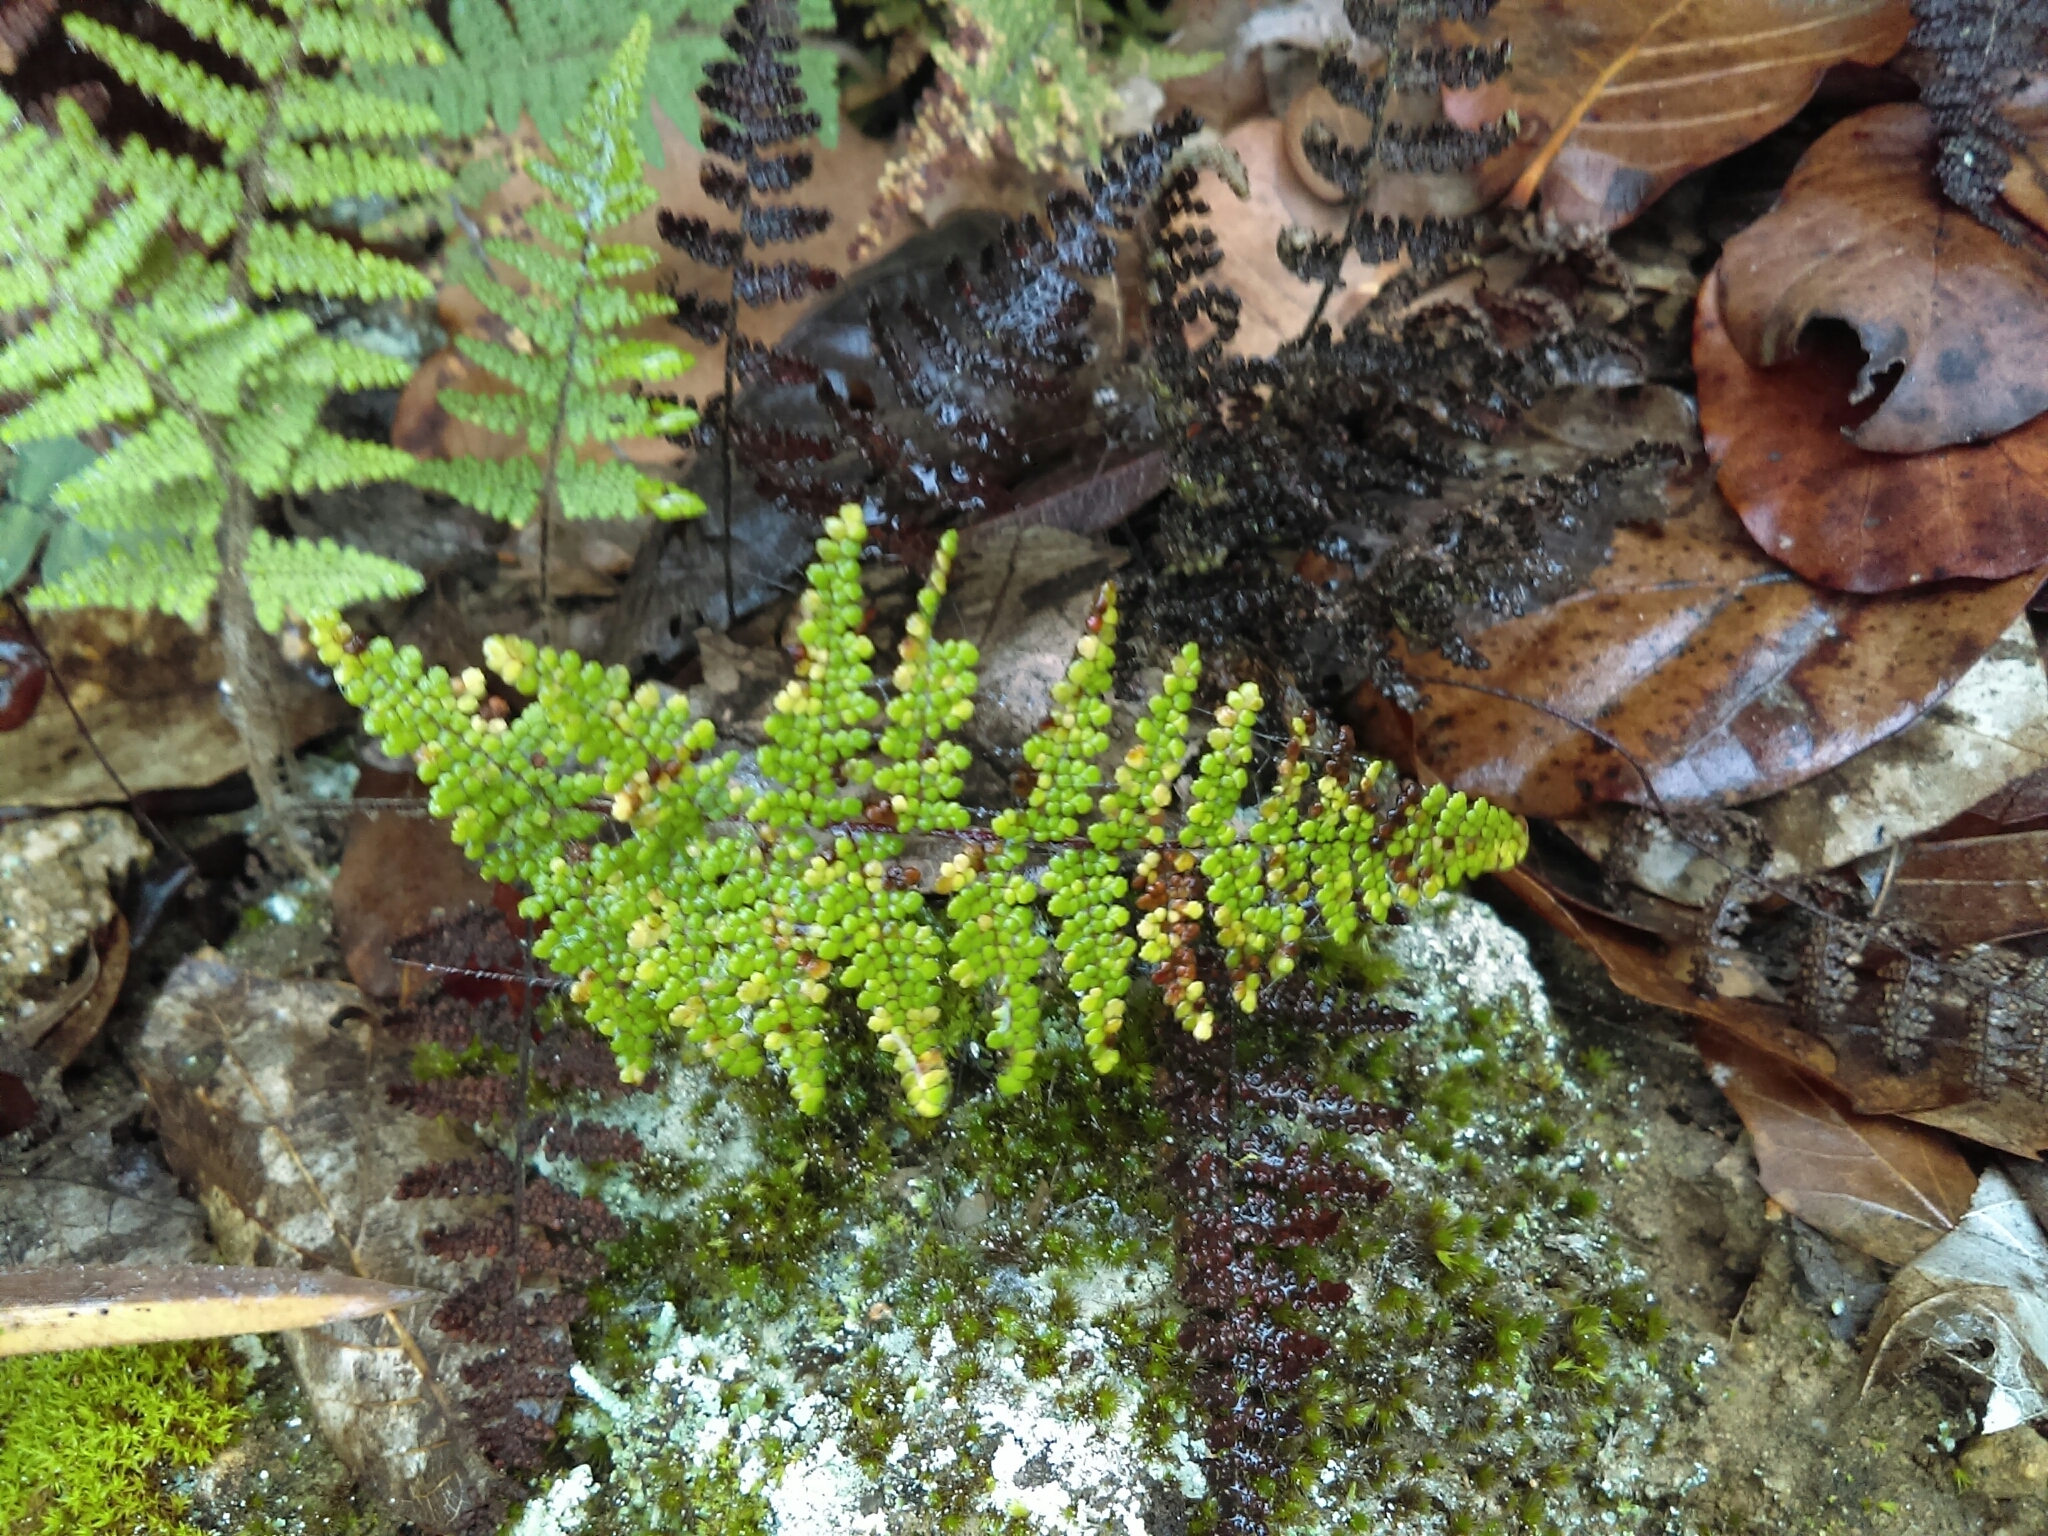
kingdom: Plantae
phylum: Tracheophyta
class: Polypodiopsida
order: Polypodiales
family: Pteridaceae
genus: Myriopteris
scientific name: Myriopteris myriophylla
